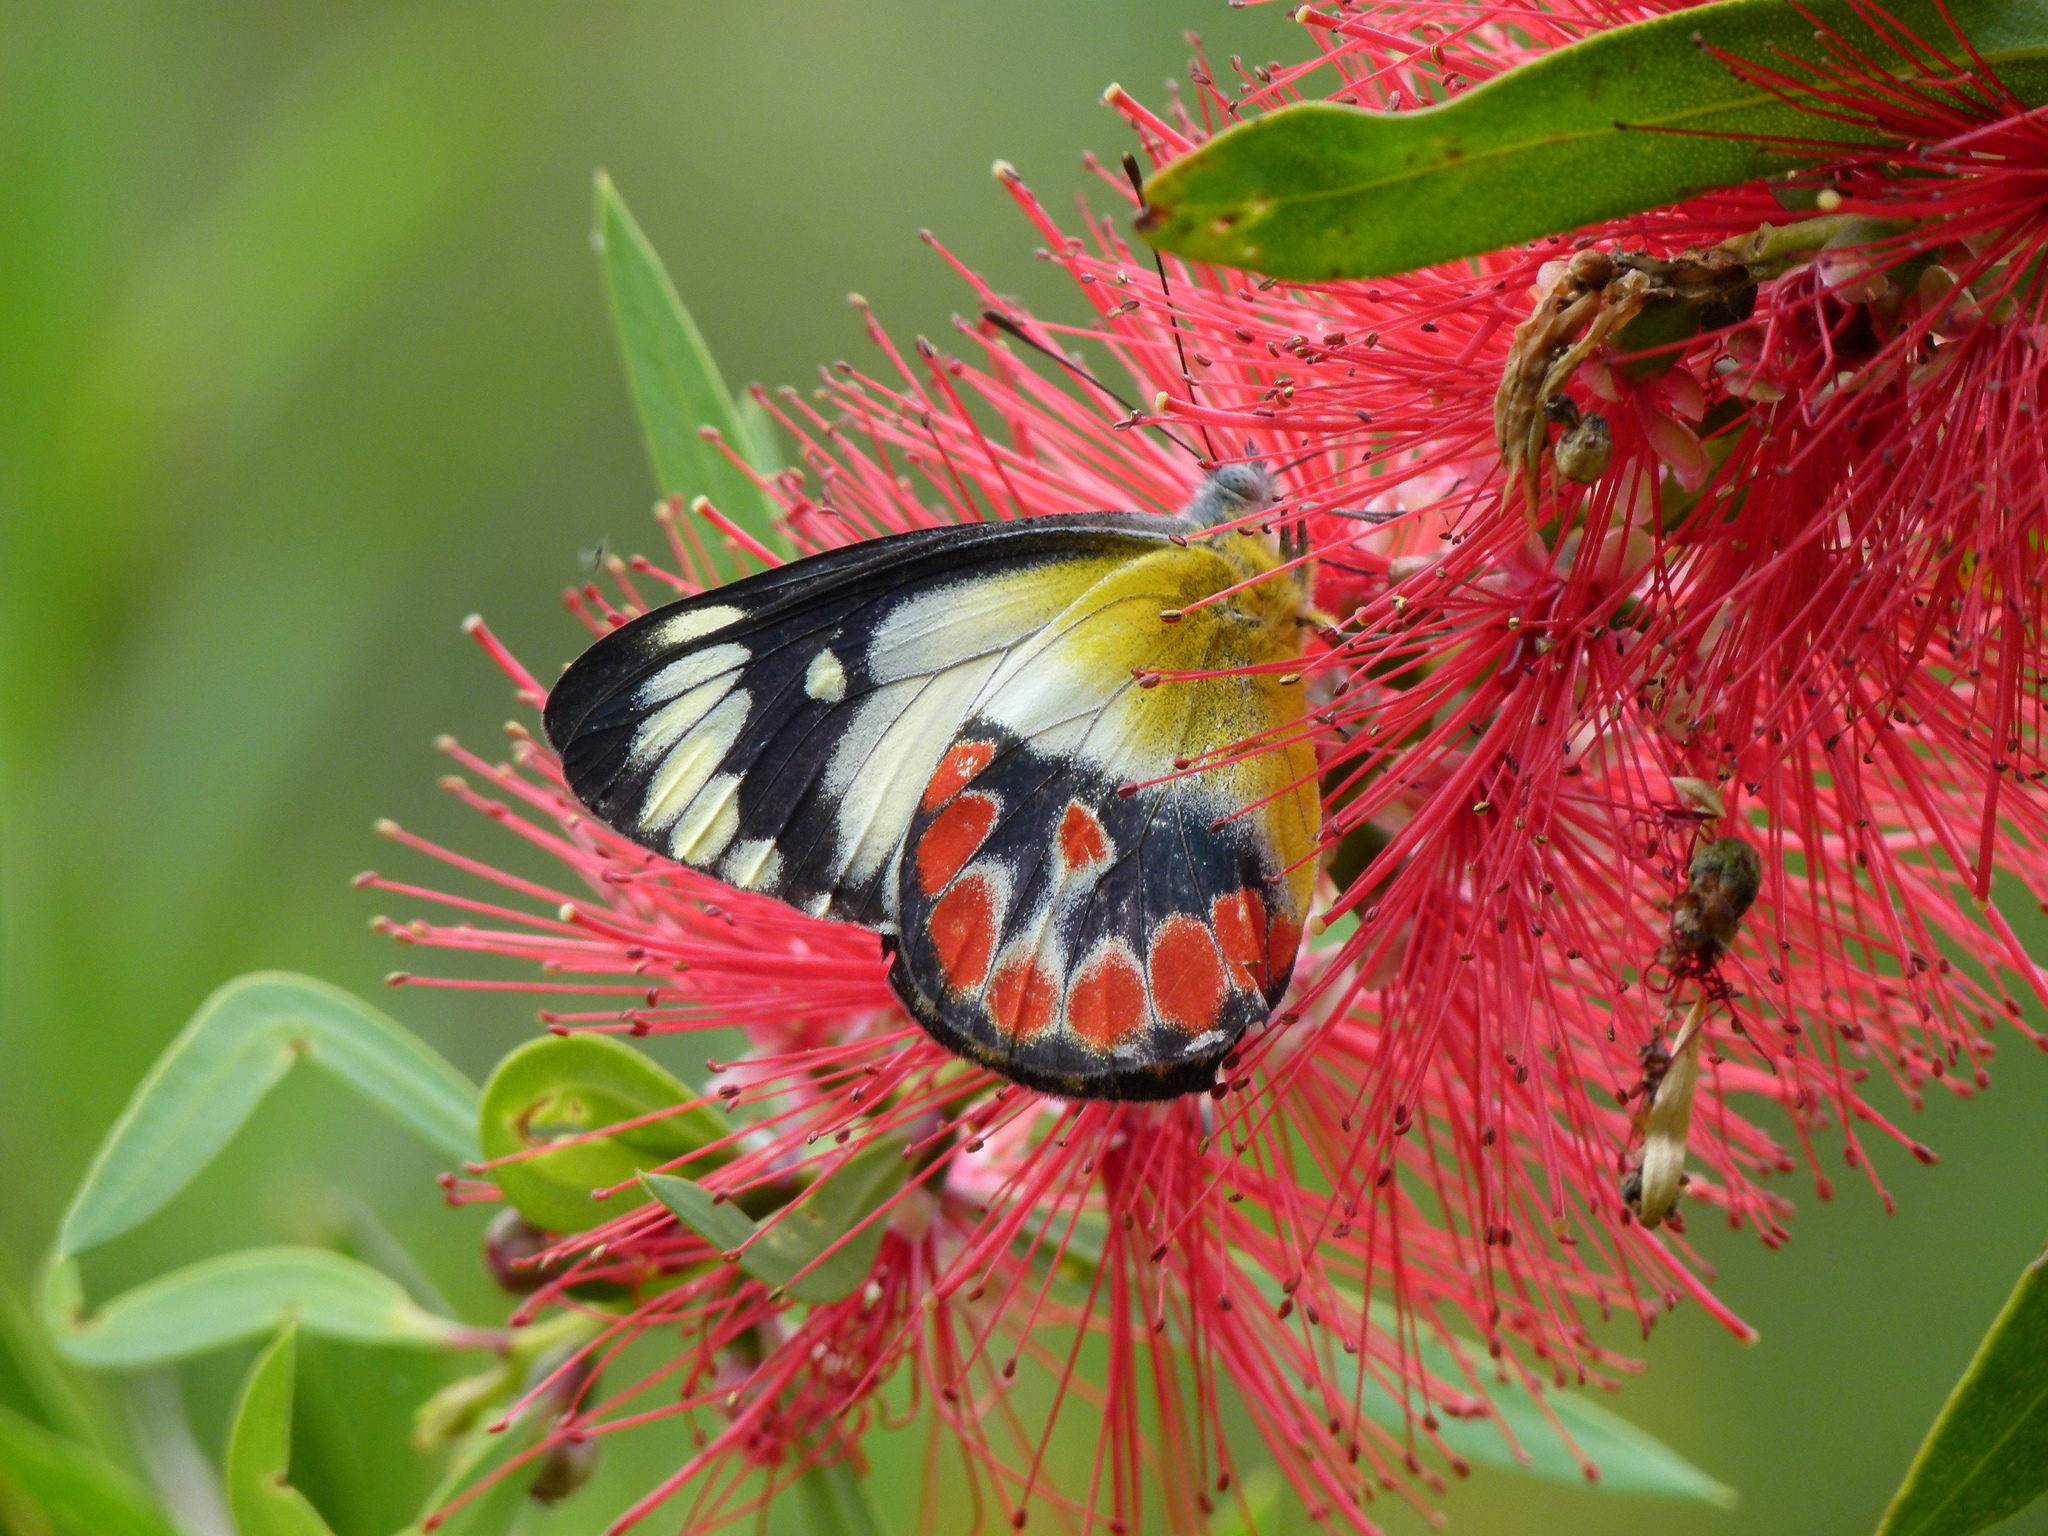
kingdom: Animalia
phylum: Arthropoda
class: Insecta
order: Lepidoptera
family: Pieridae
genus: Delias
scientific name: Delias argenthona
